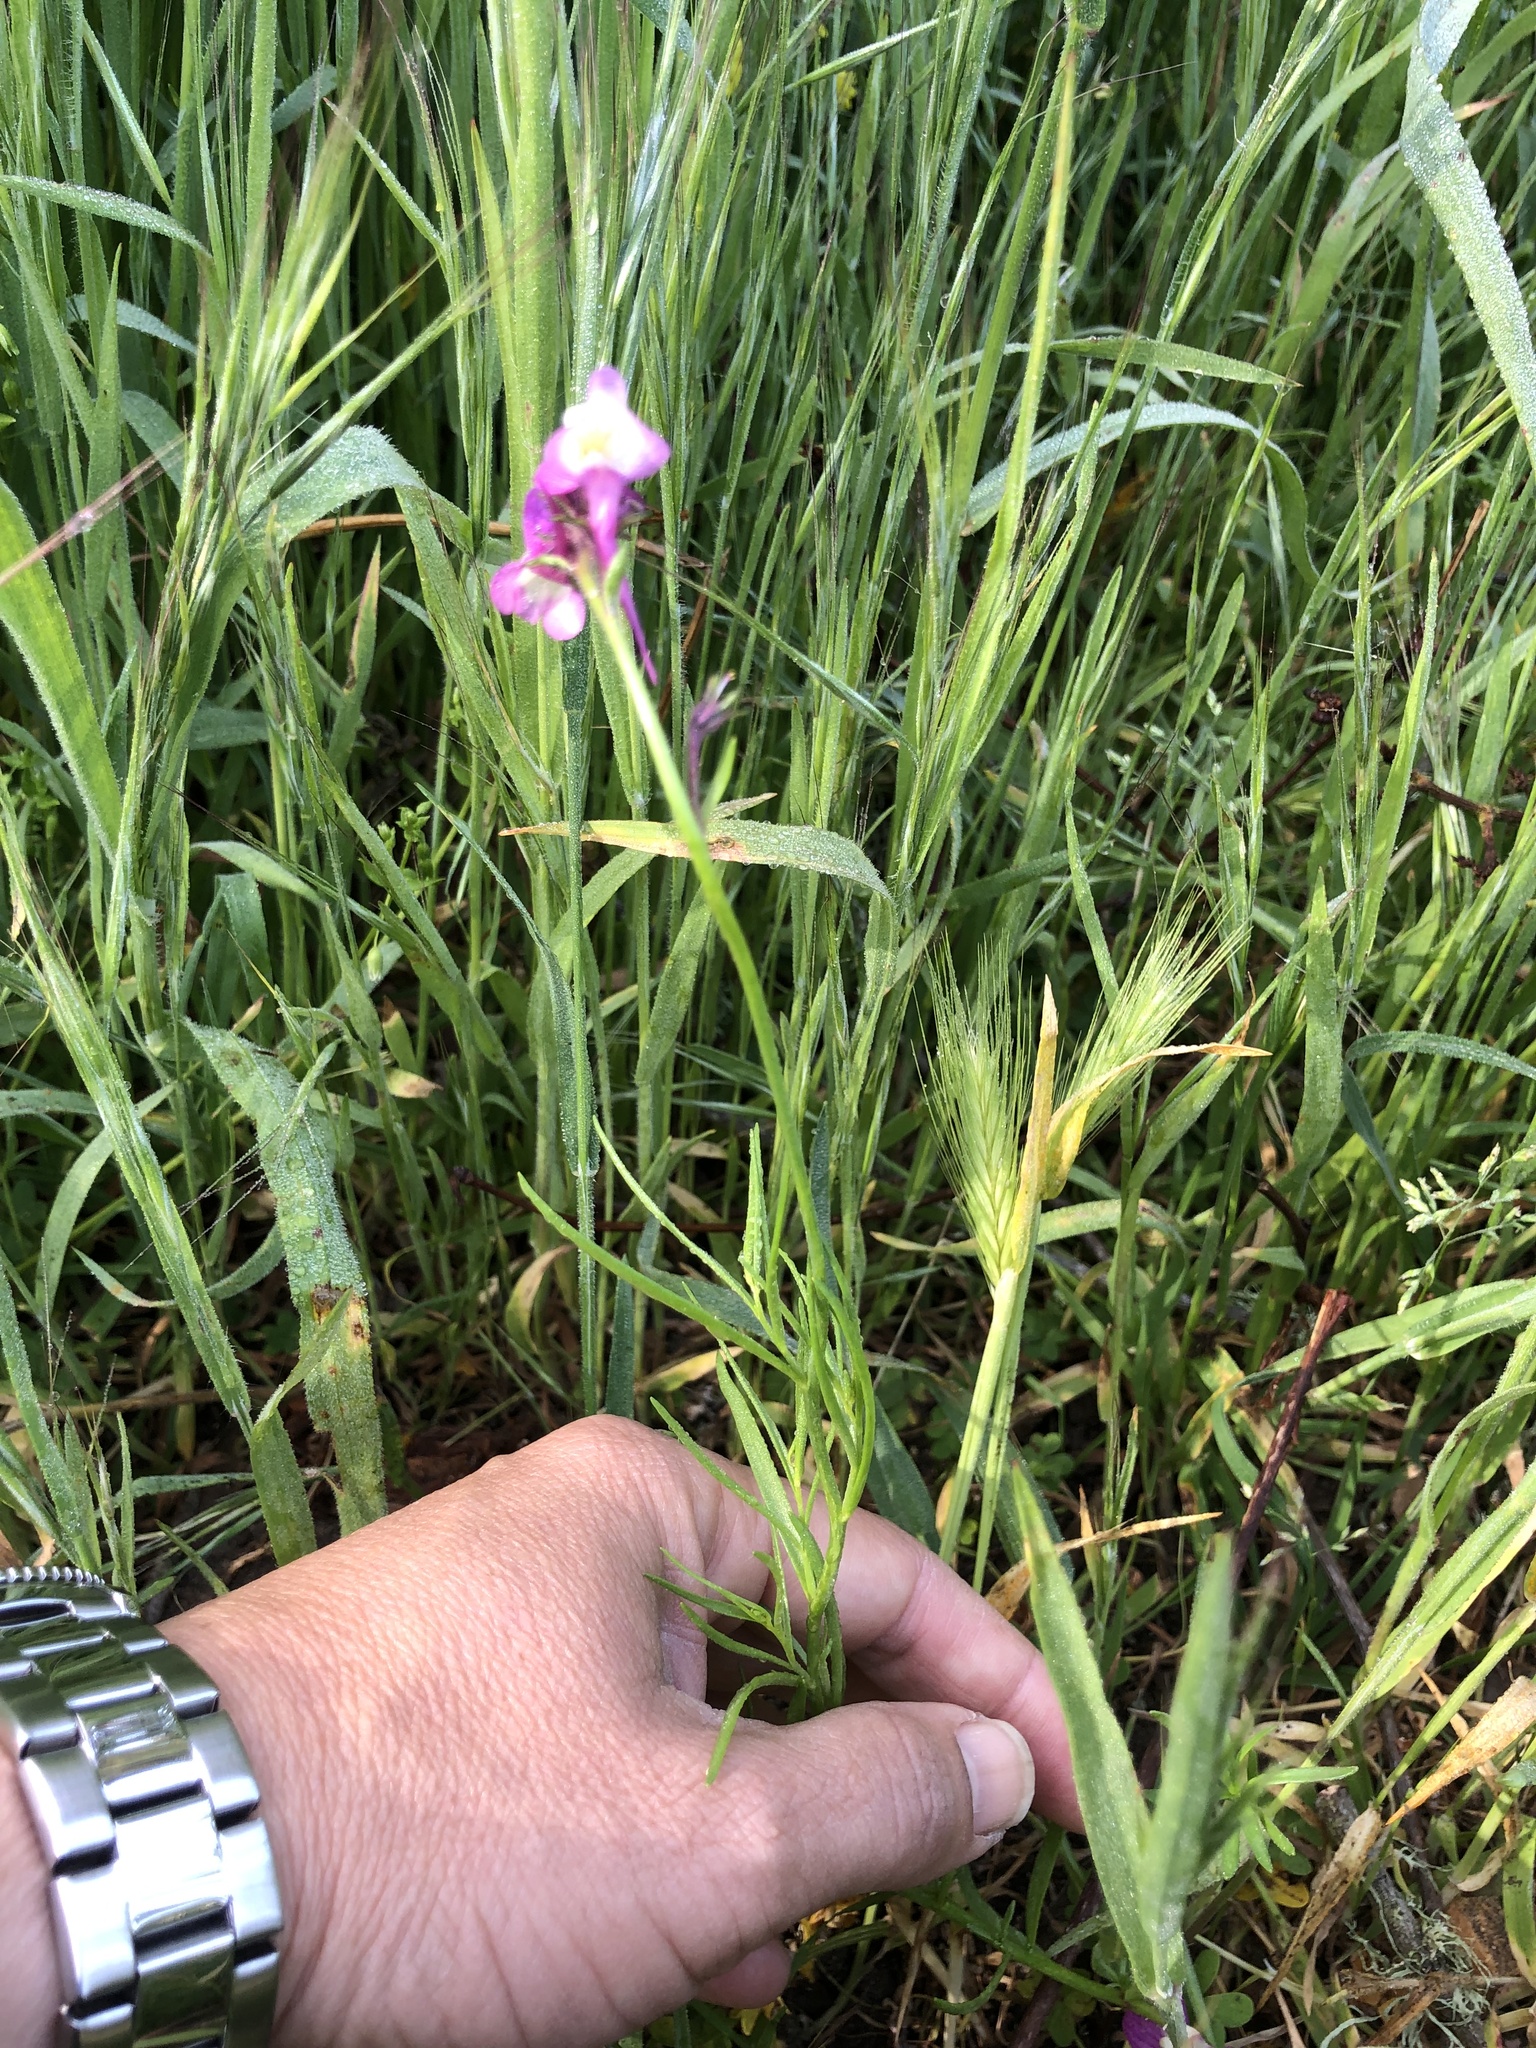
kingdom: Plantae
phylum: Tracheophyta
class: Magnoliopsida
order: Lamiales
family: Plantaginaceae
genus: Linaria
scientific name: Linaria maroccana
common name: Moroccan toadflax
